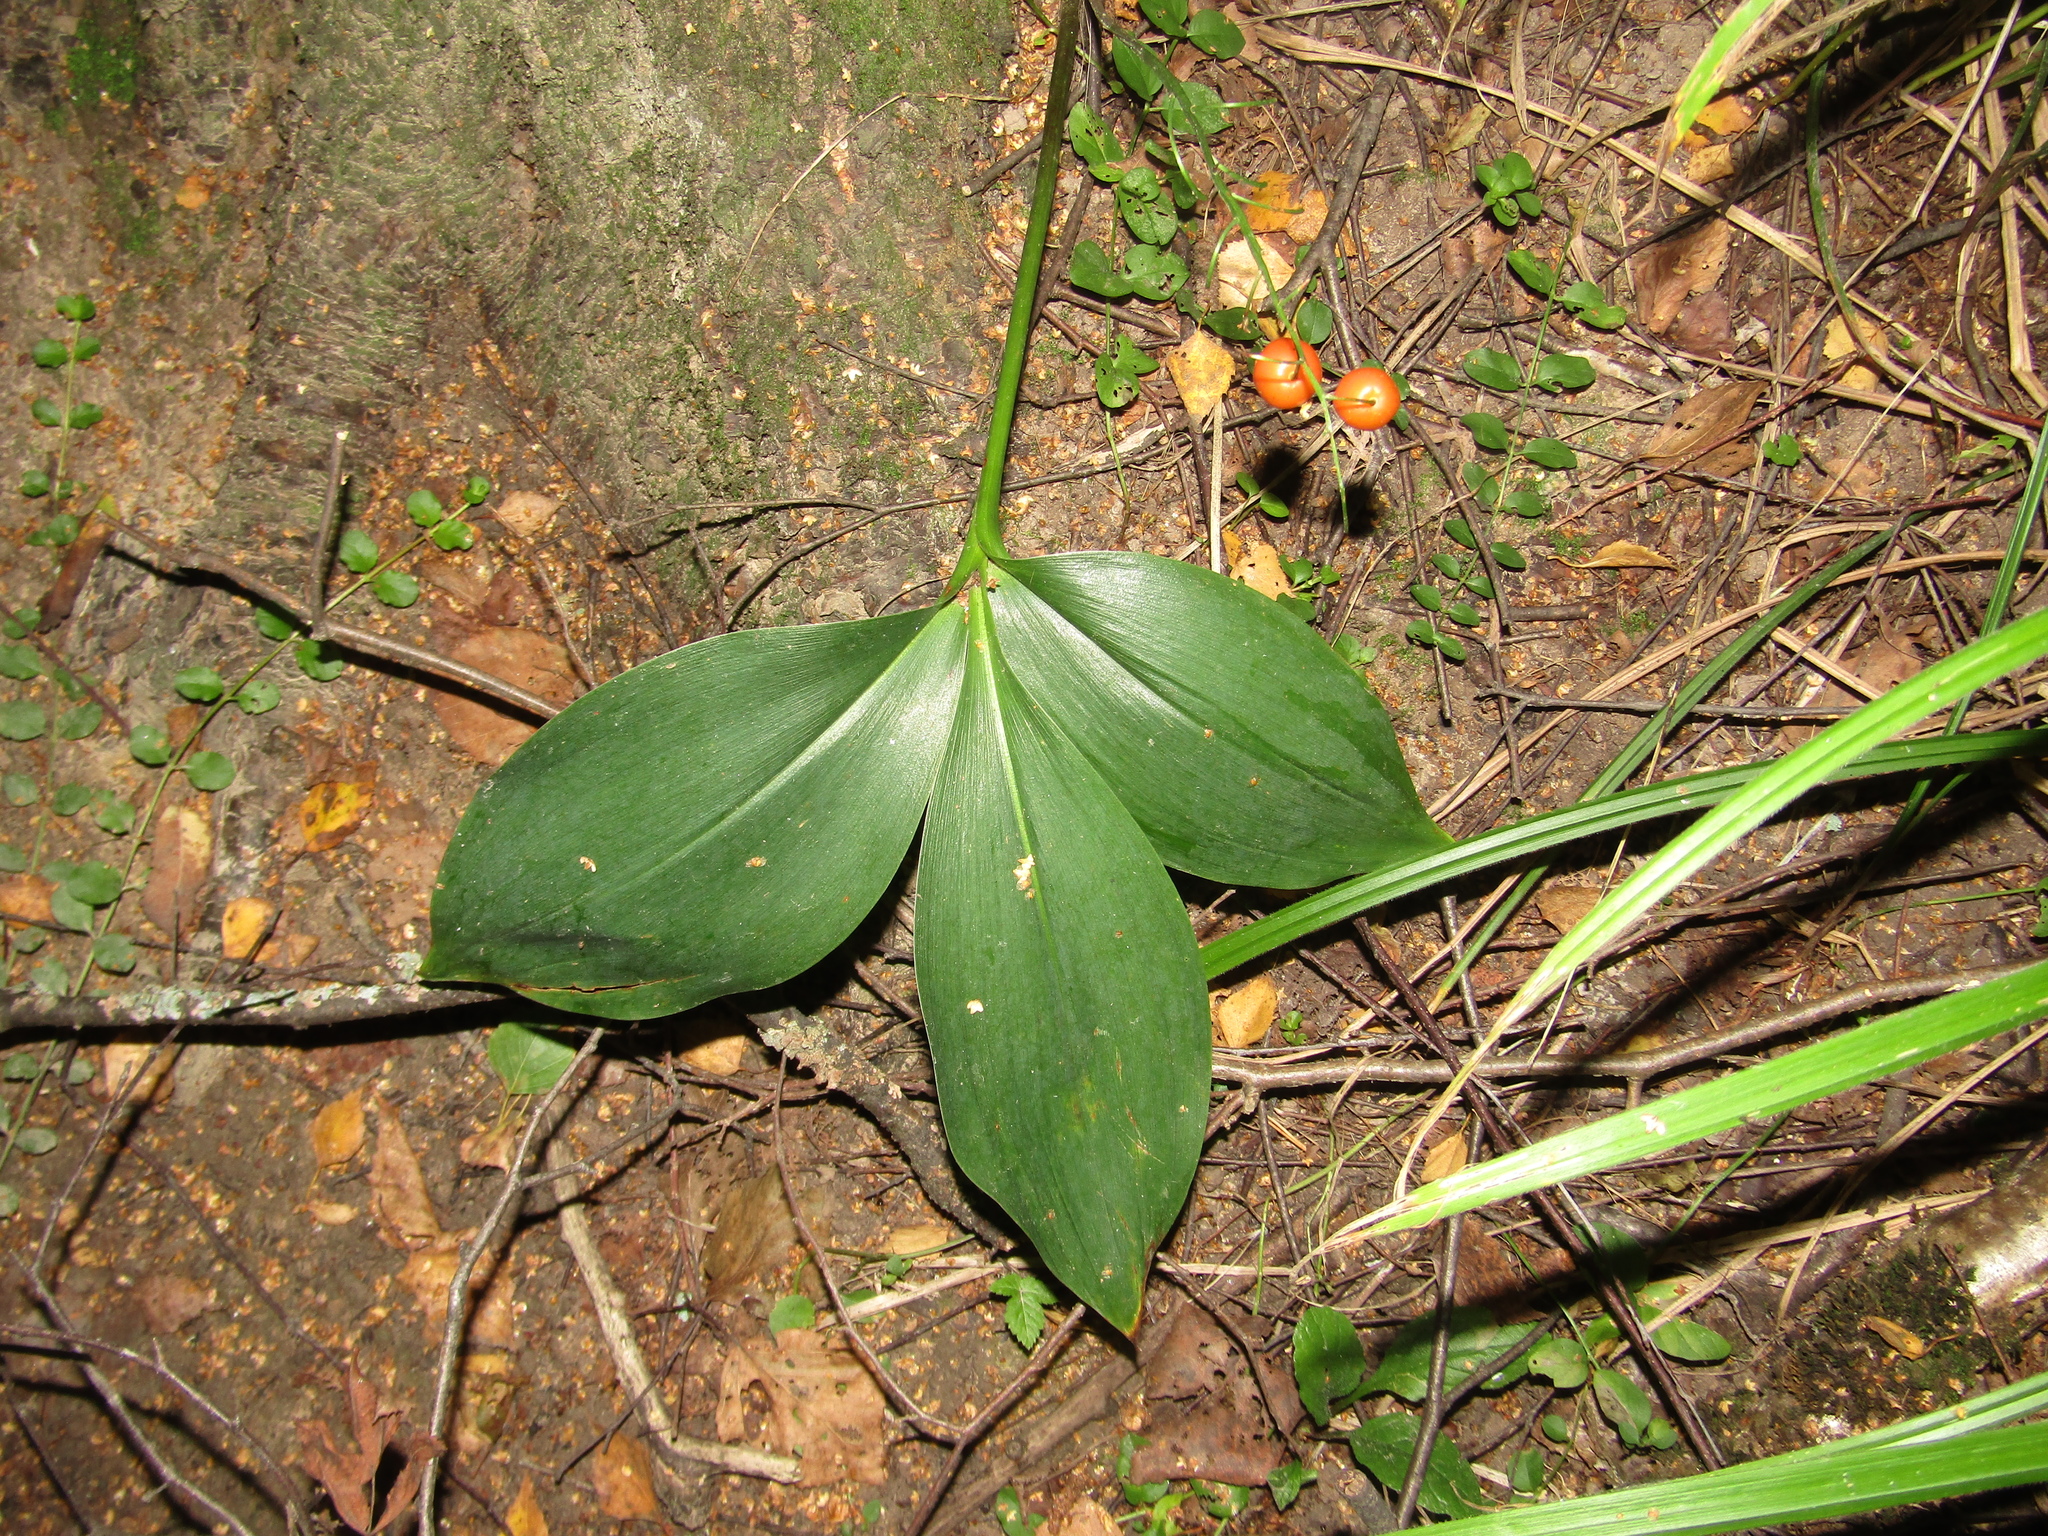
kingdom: Plantae
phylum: Tracheophyta
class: Liliopsida
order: Asparagales
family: Asparagaceae
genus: Convallaria
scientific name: Convallaria majalis
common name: Lily-of-the-valley
